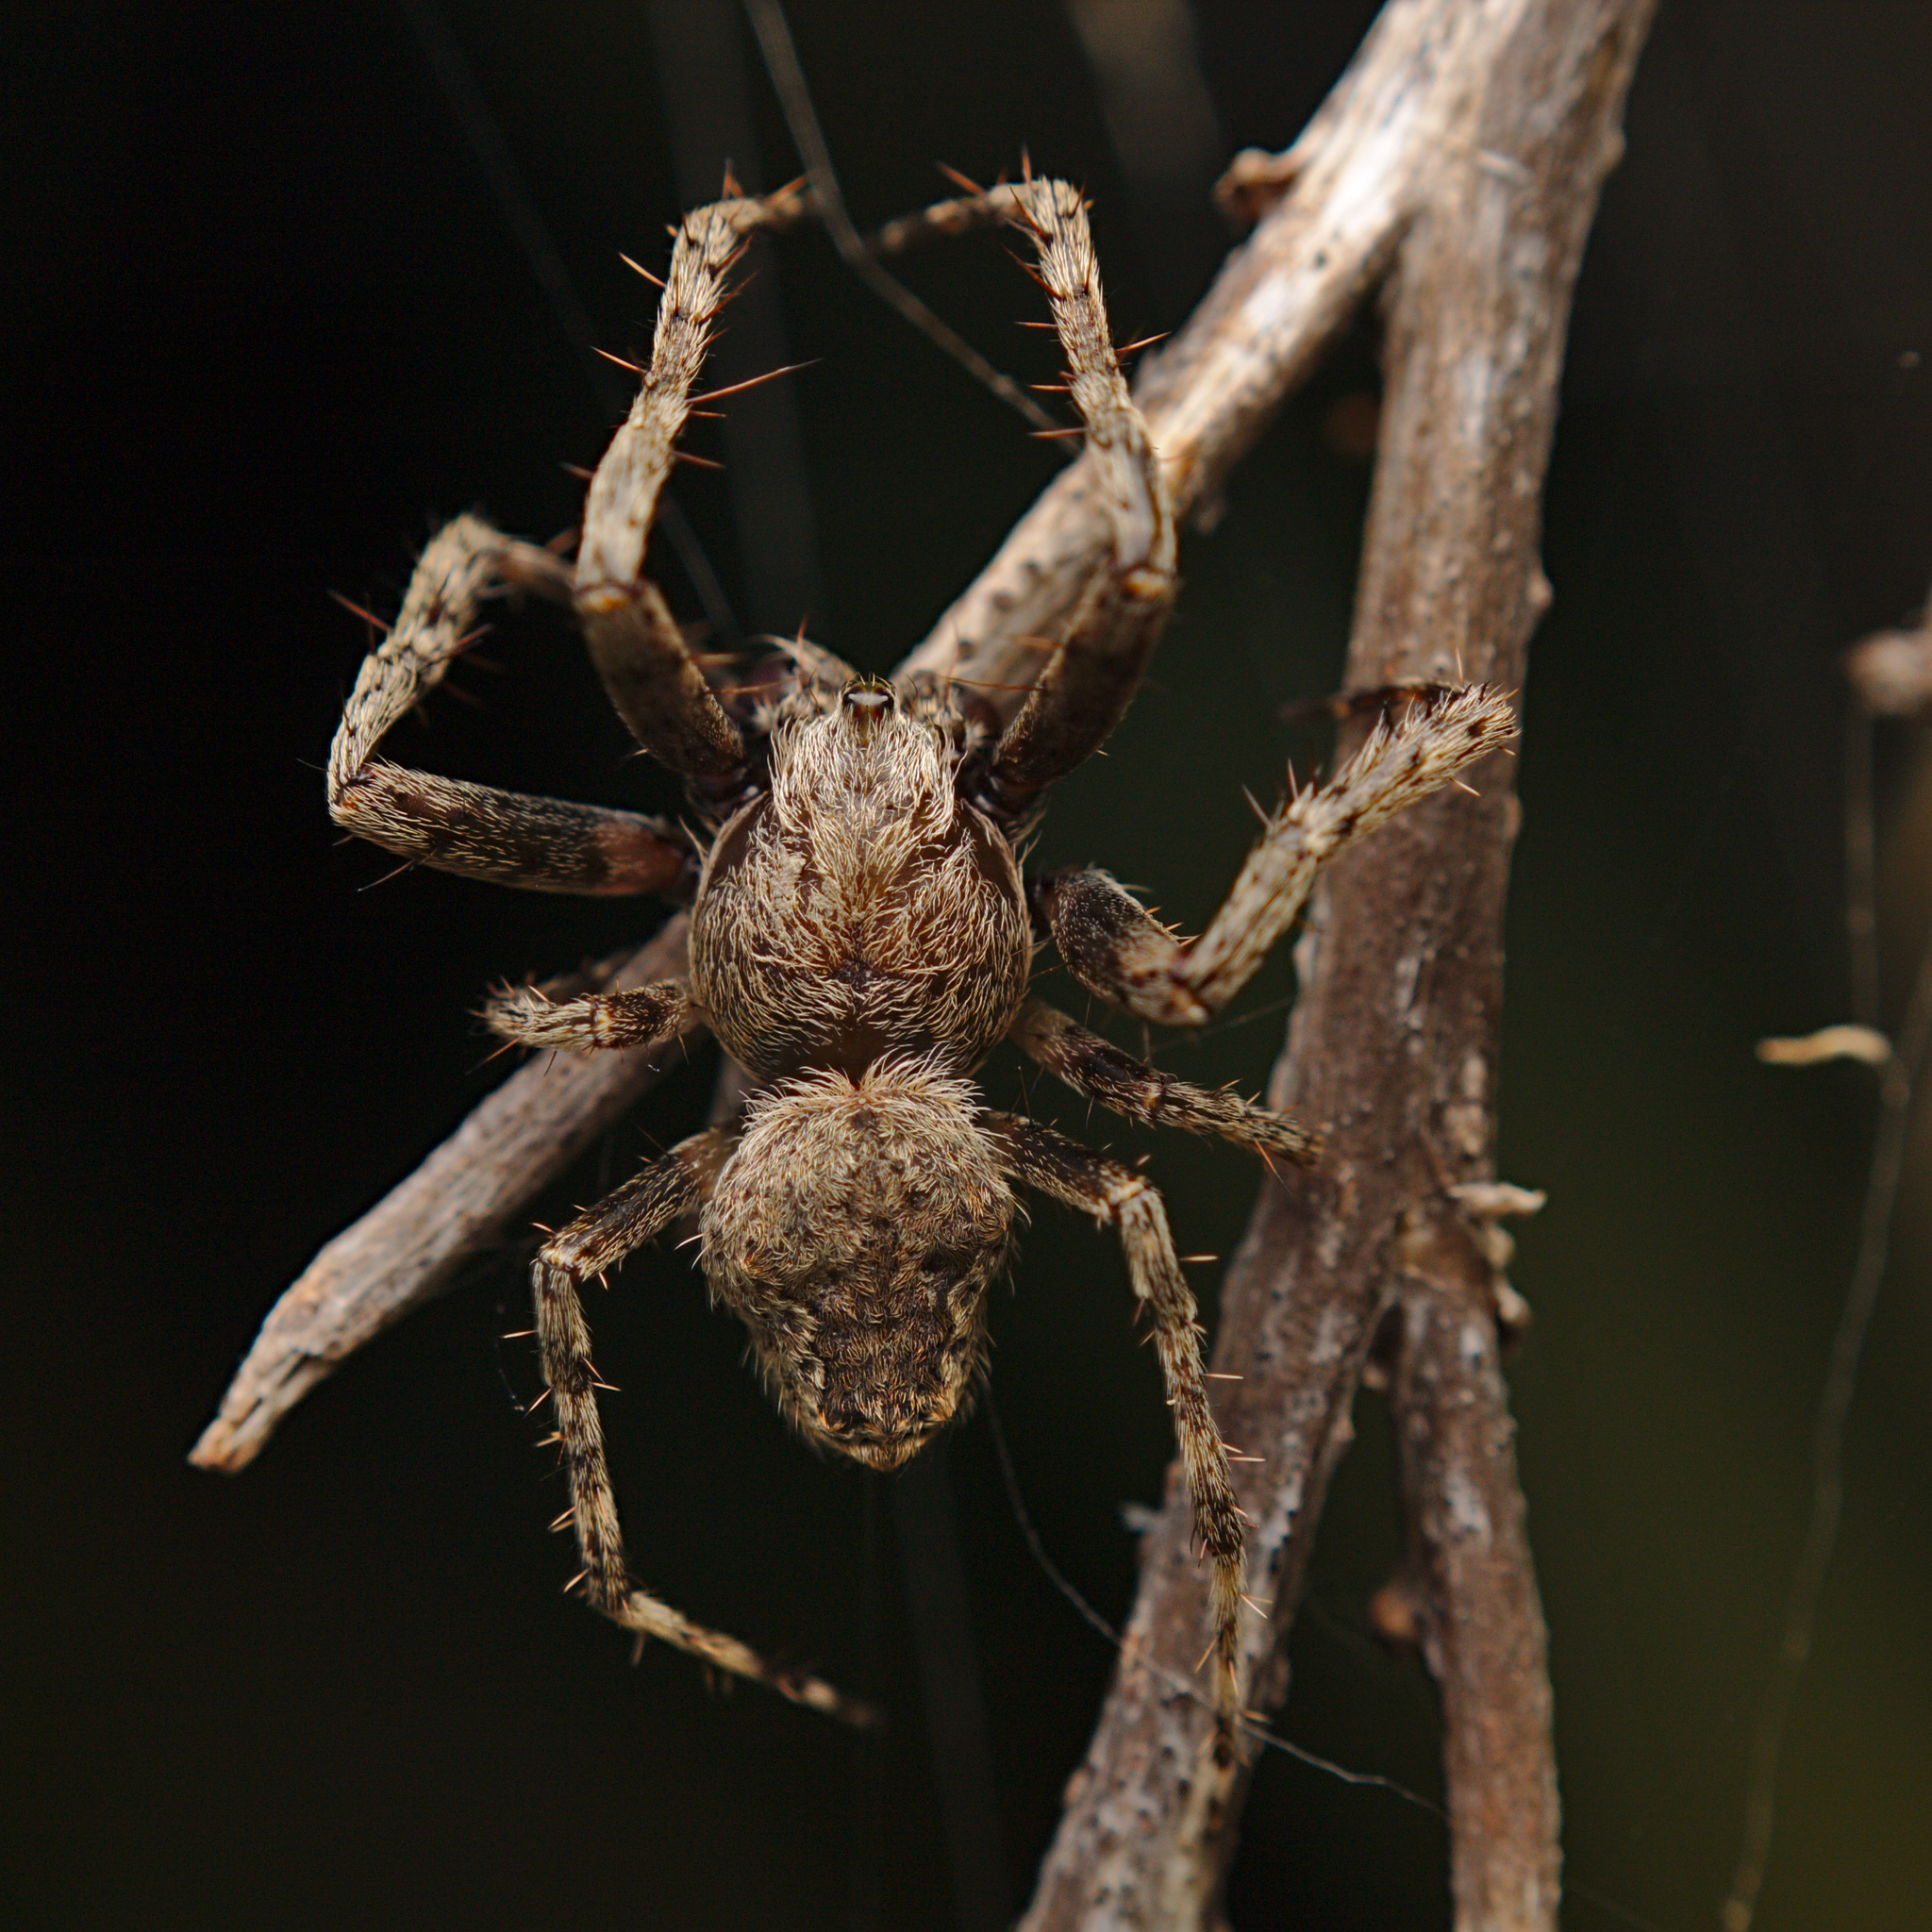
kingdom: Animalia
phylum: Arthropoda
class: Arachnida
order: Araneae
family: Araneidae
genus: Eriophora
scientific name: Eriophora pustulosa
